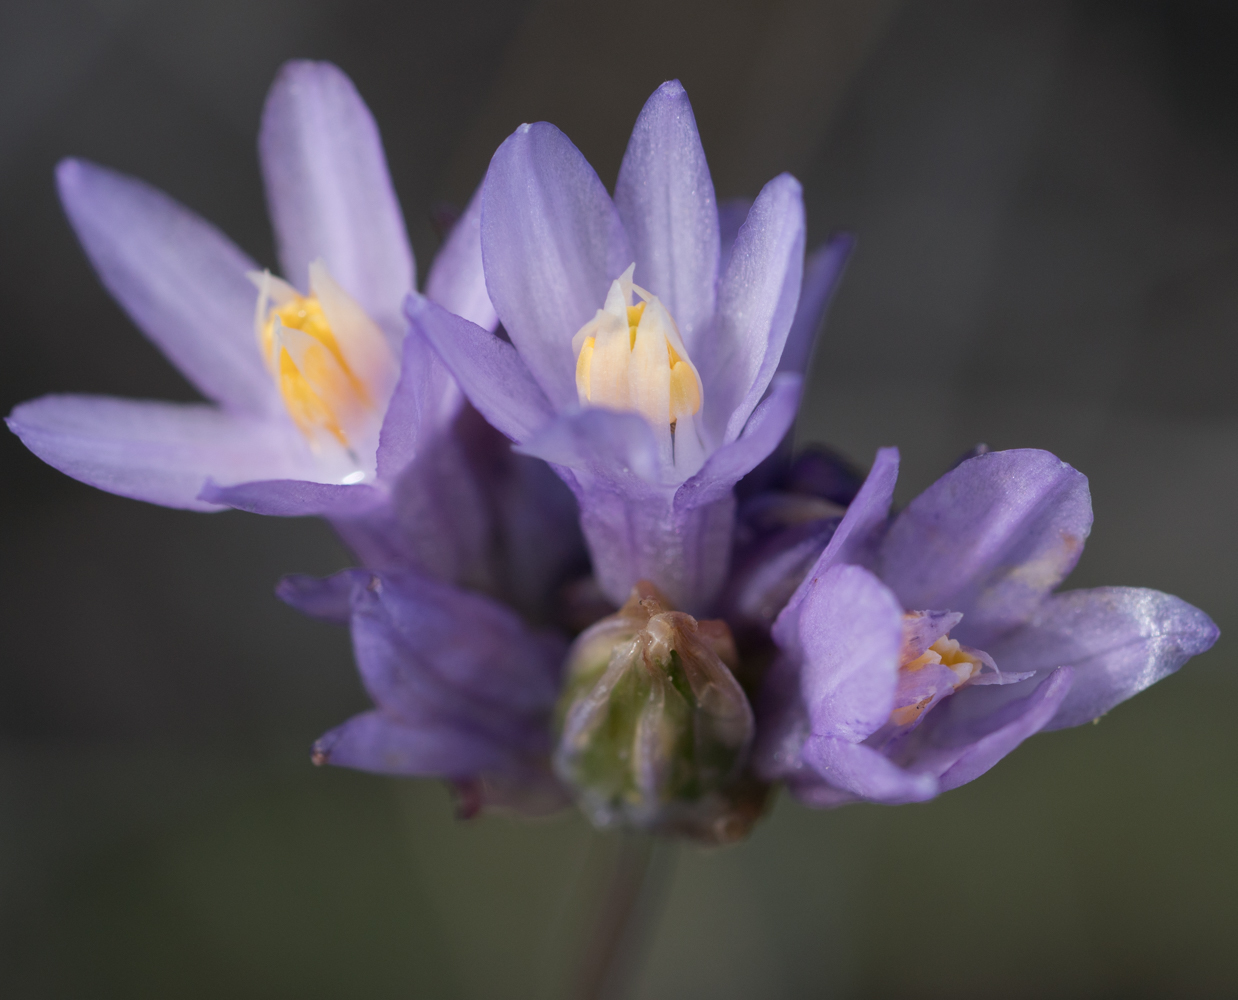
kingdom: Plantae
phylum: Tracheophyta
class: Liliopsida
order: Asparagales
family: Asparagaceae
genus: Dipterostemon
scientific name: Dipterostemon capitatus
